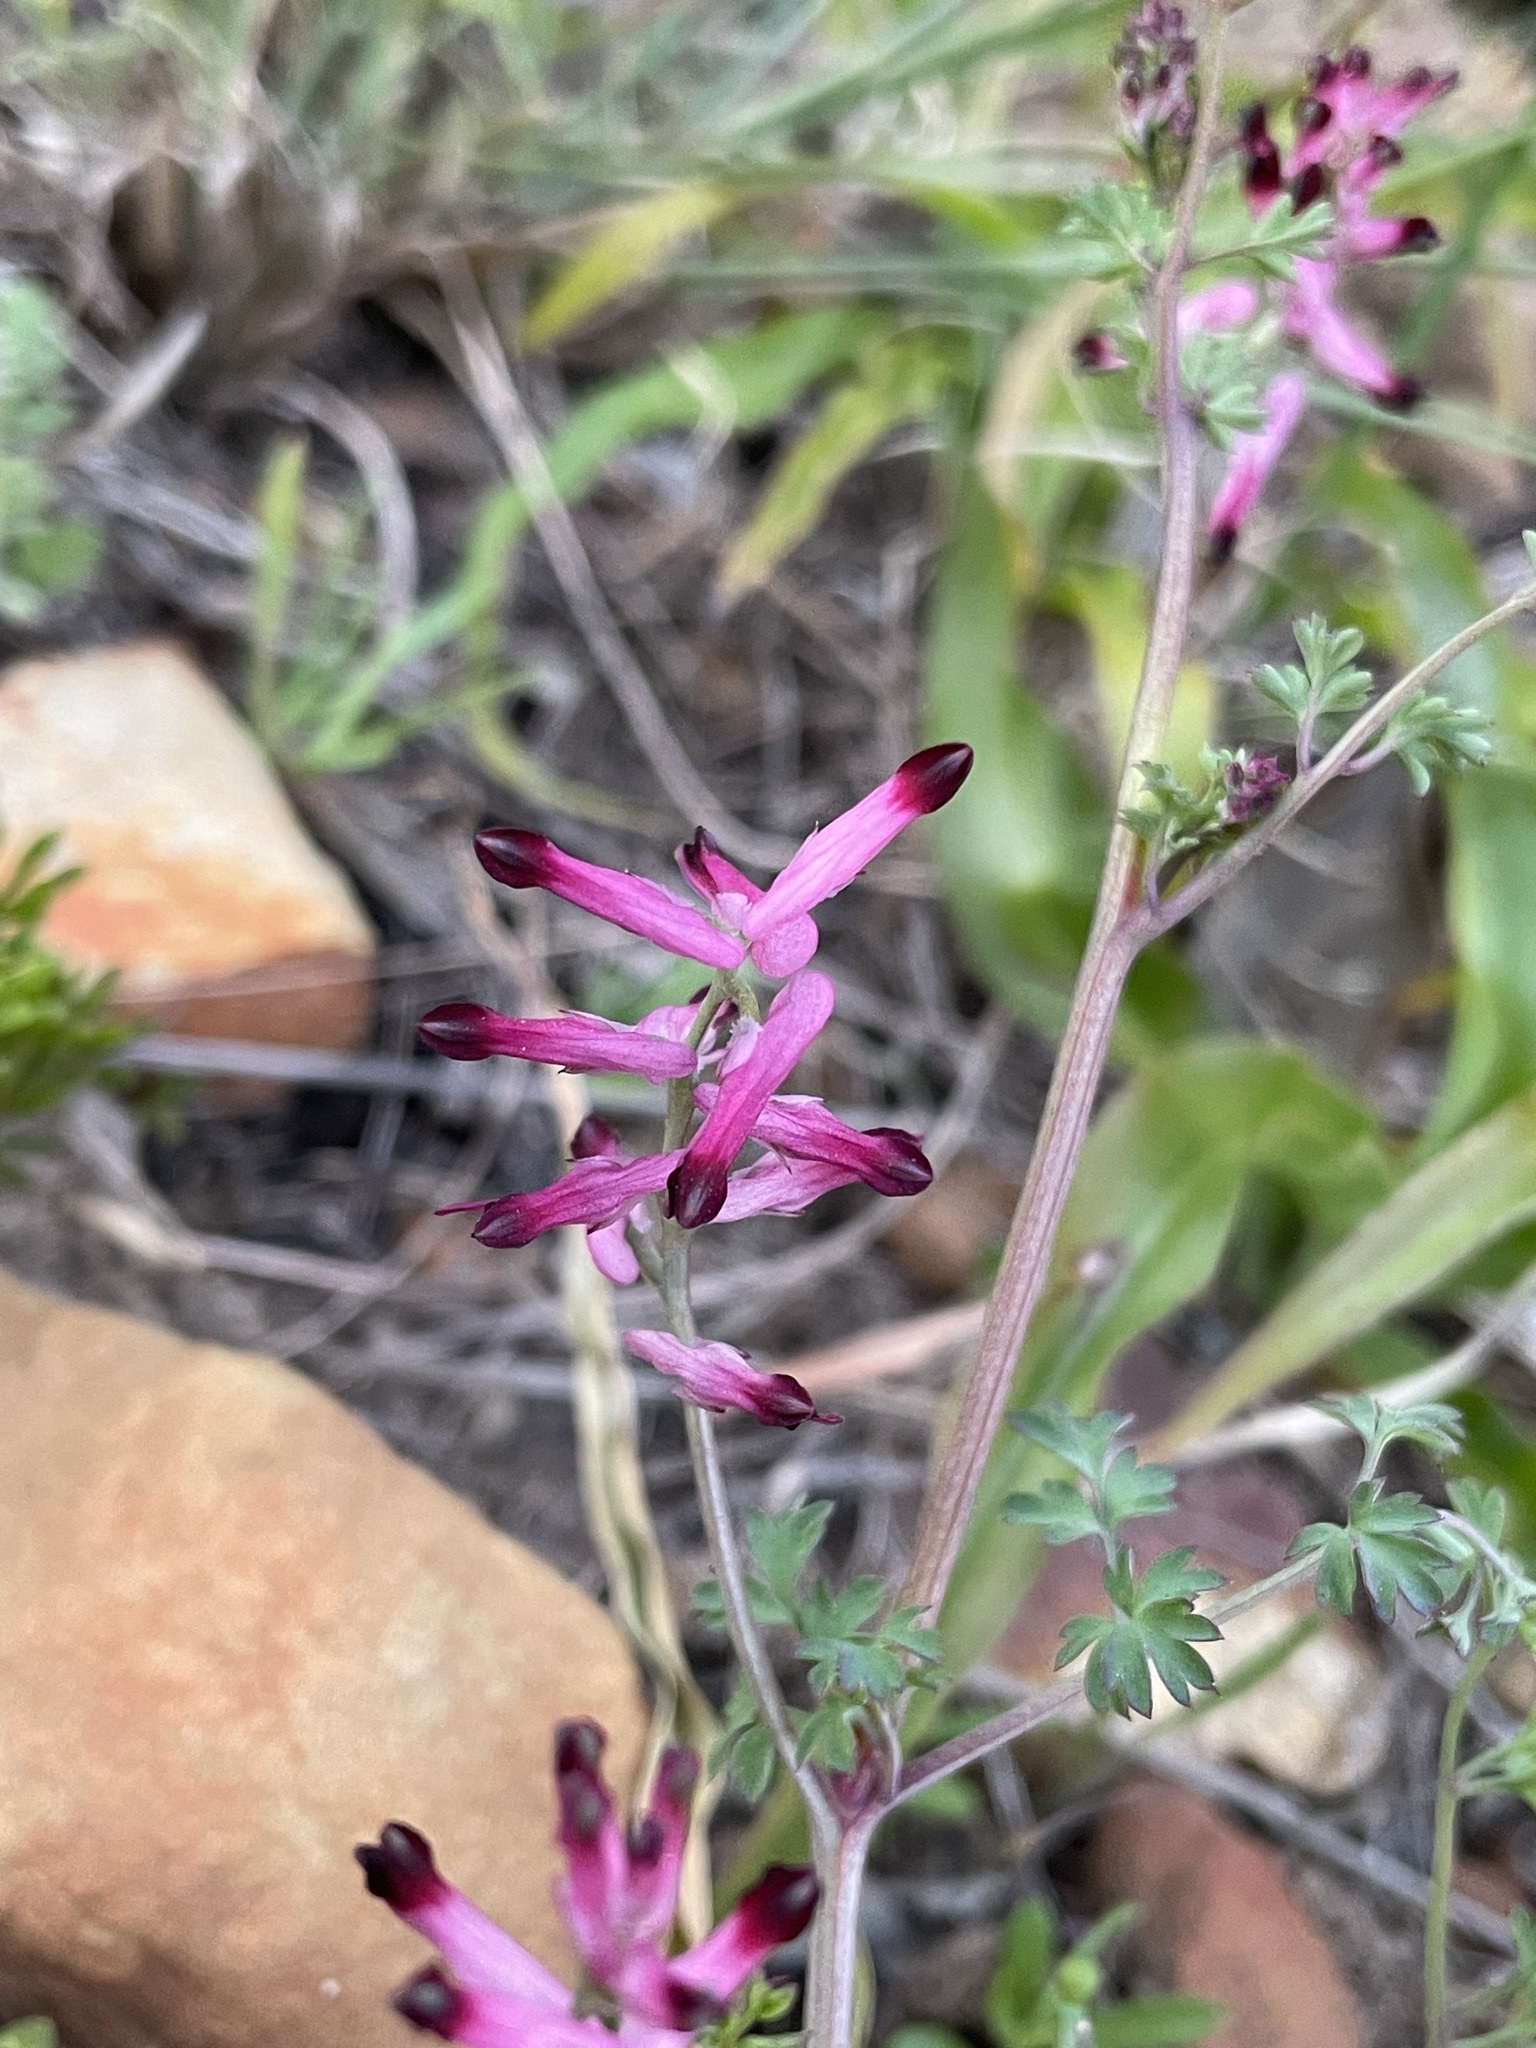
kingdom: Plantae
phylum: Tracheophyta
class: Magnoliopsida
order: Ranunculales
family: Papaveraceae
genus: Fumaria
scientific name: Fumaria muralis
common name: Common ramping-fumitory
